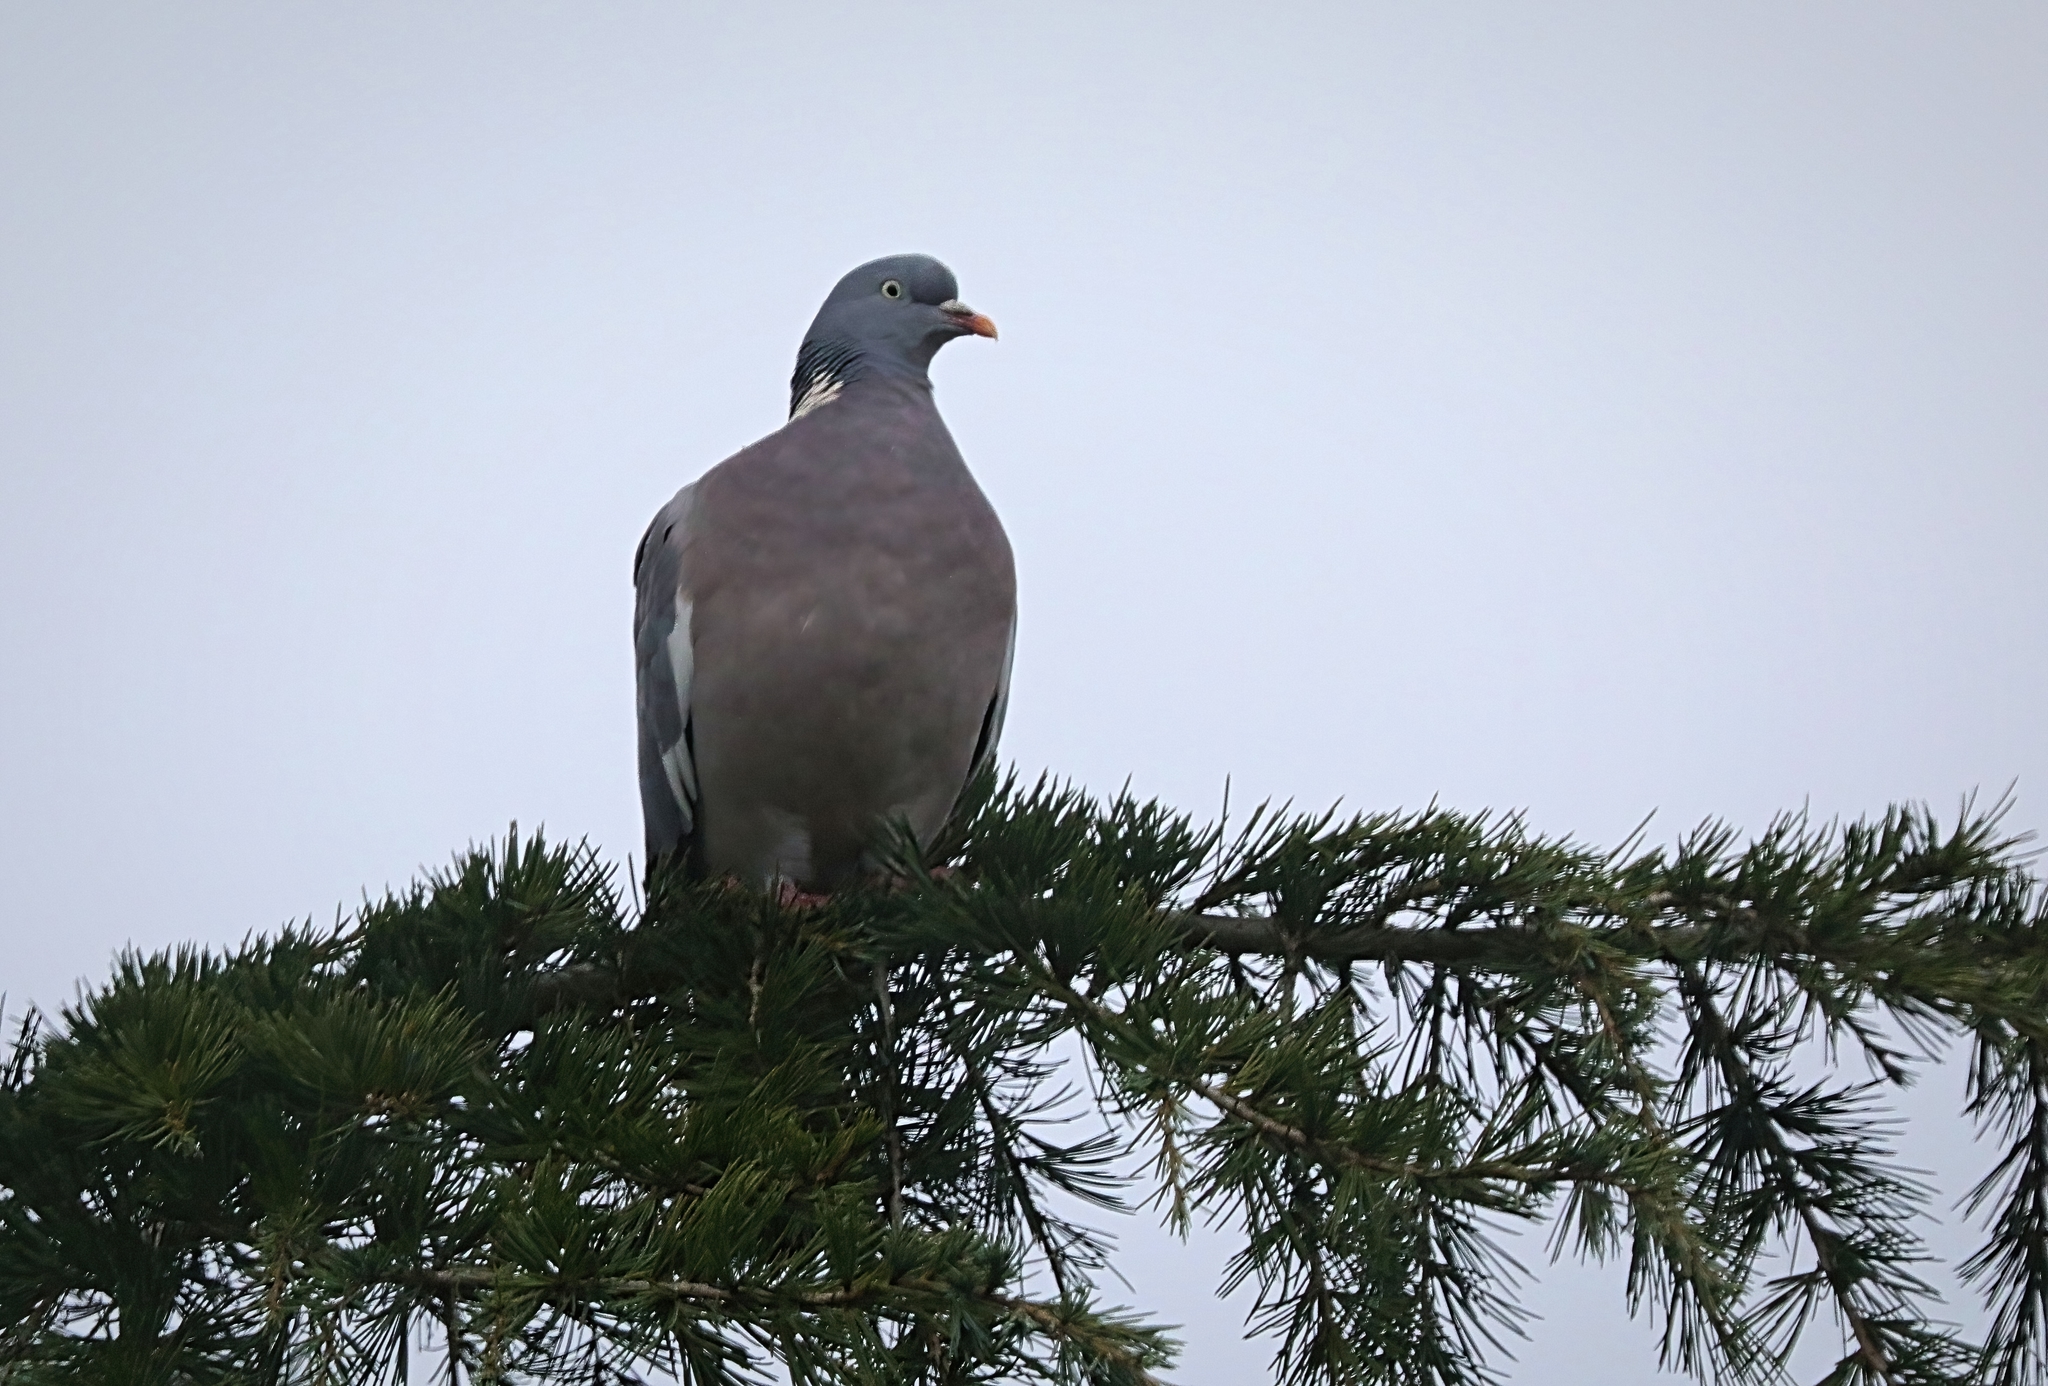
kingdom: Animalia
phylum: Chordata
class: Aves
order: Columbiformes
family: Columbidae
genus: Columba
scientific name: Columba palumbus
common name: Common wood pigeon
